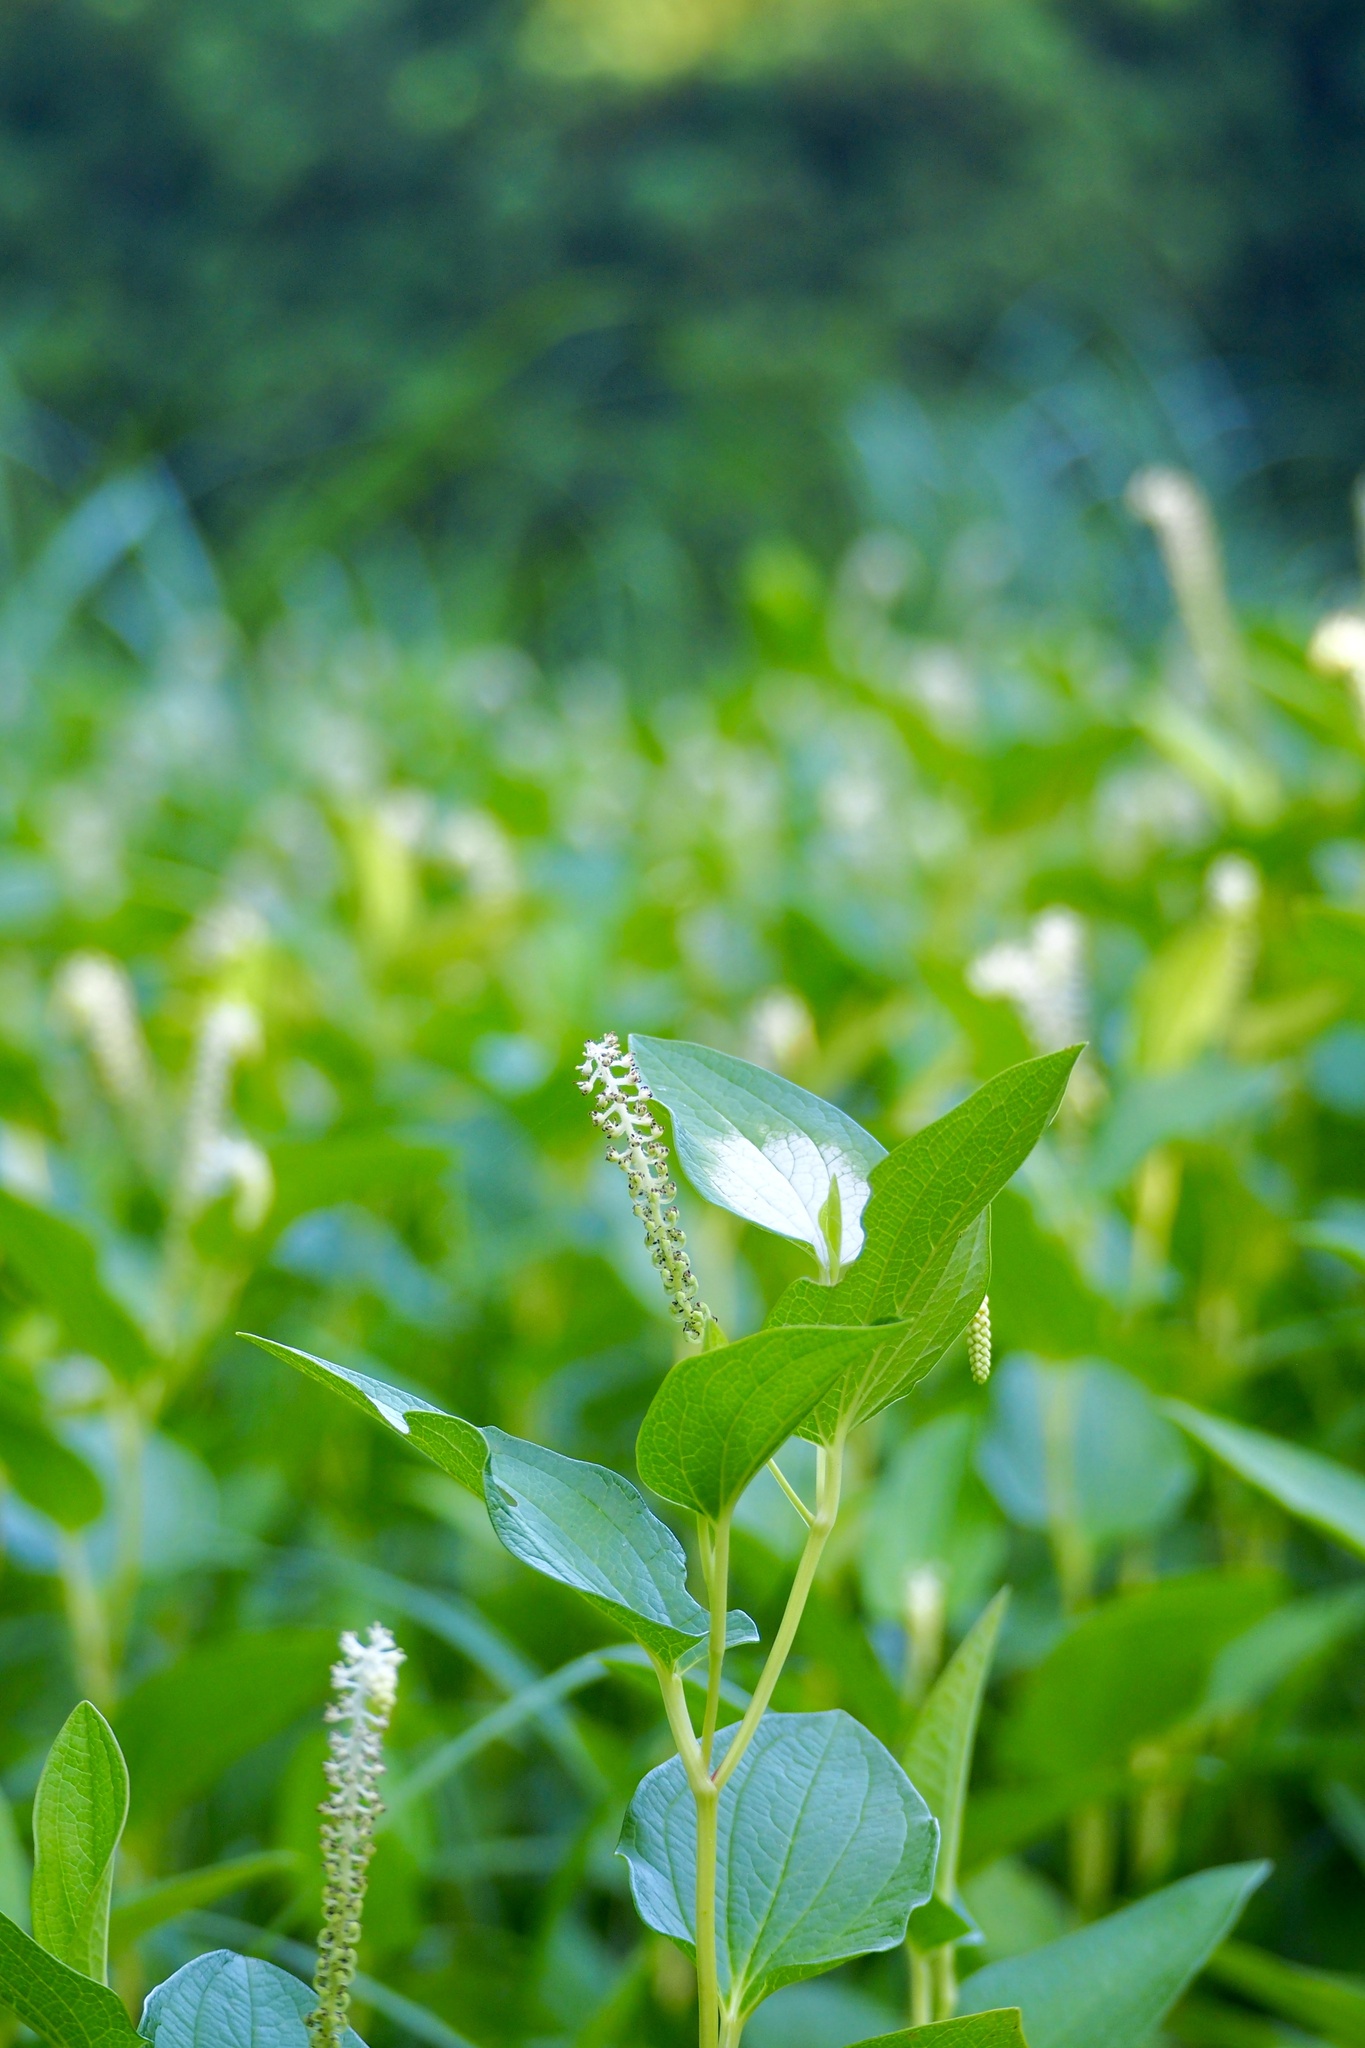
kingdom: Plantae
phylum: Tracheophyta
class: Magnoliopsida
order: Piperales
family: Saururaceae
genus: Saururus
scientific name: Saururus chinensis
